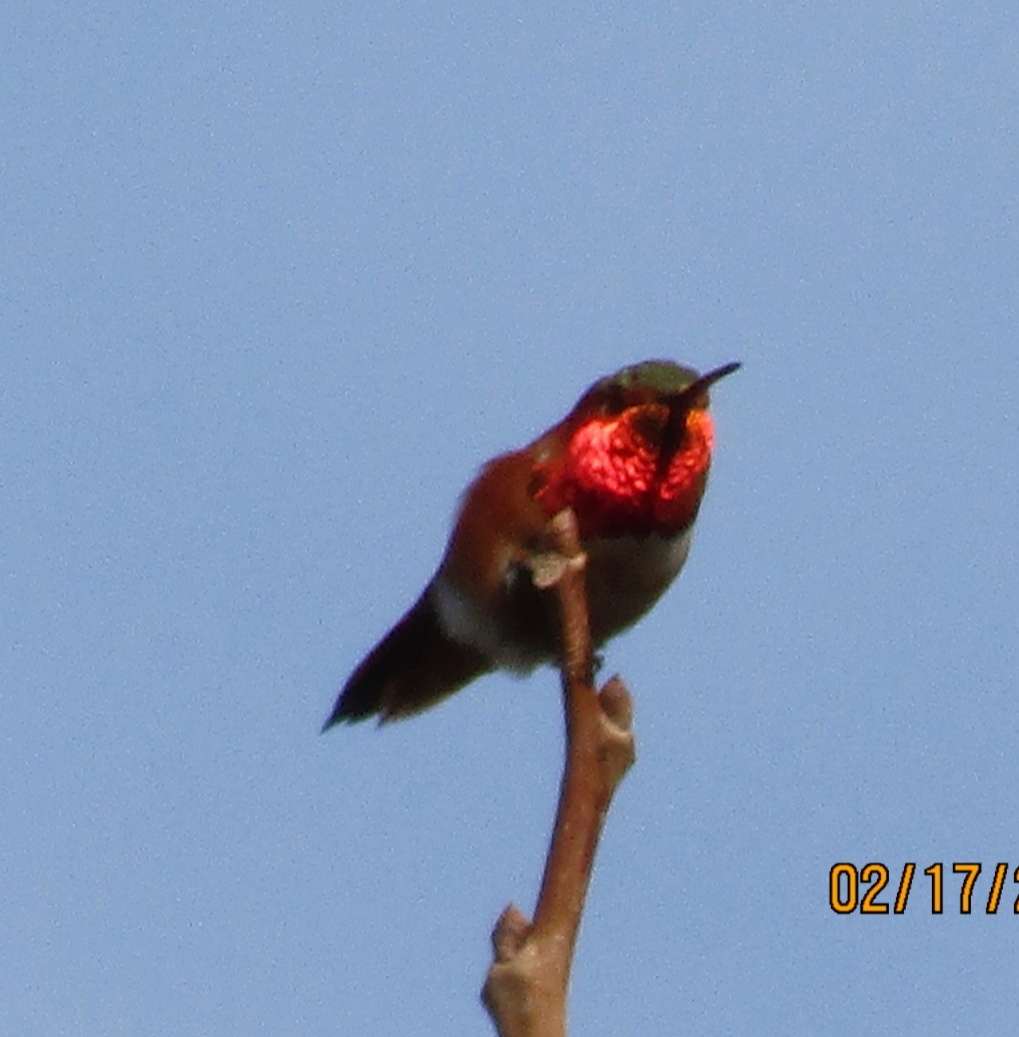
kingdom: Animalia
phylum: Chordata
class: Aves
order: Apodiformes
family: Trochilidae
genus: Selasphorus
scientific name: Selasphorus sasin
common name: Allen's hummingbird
